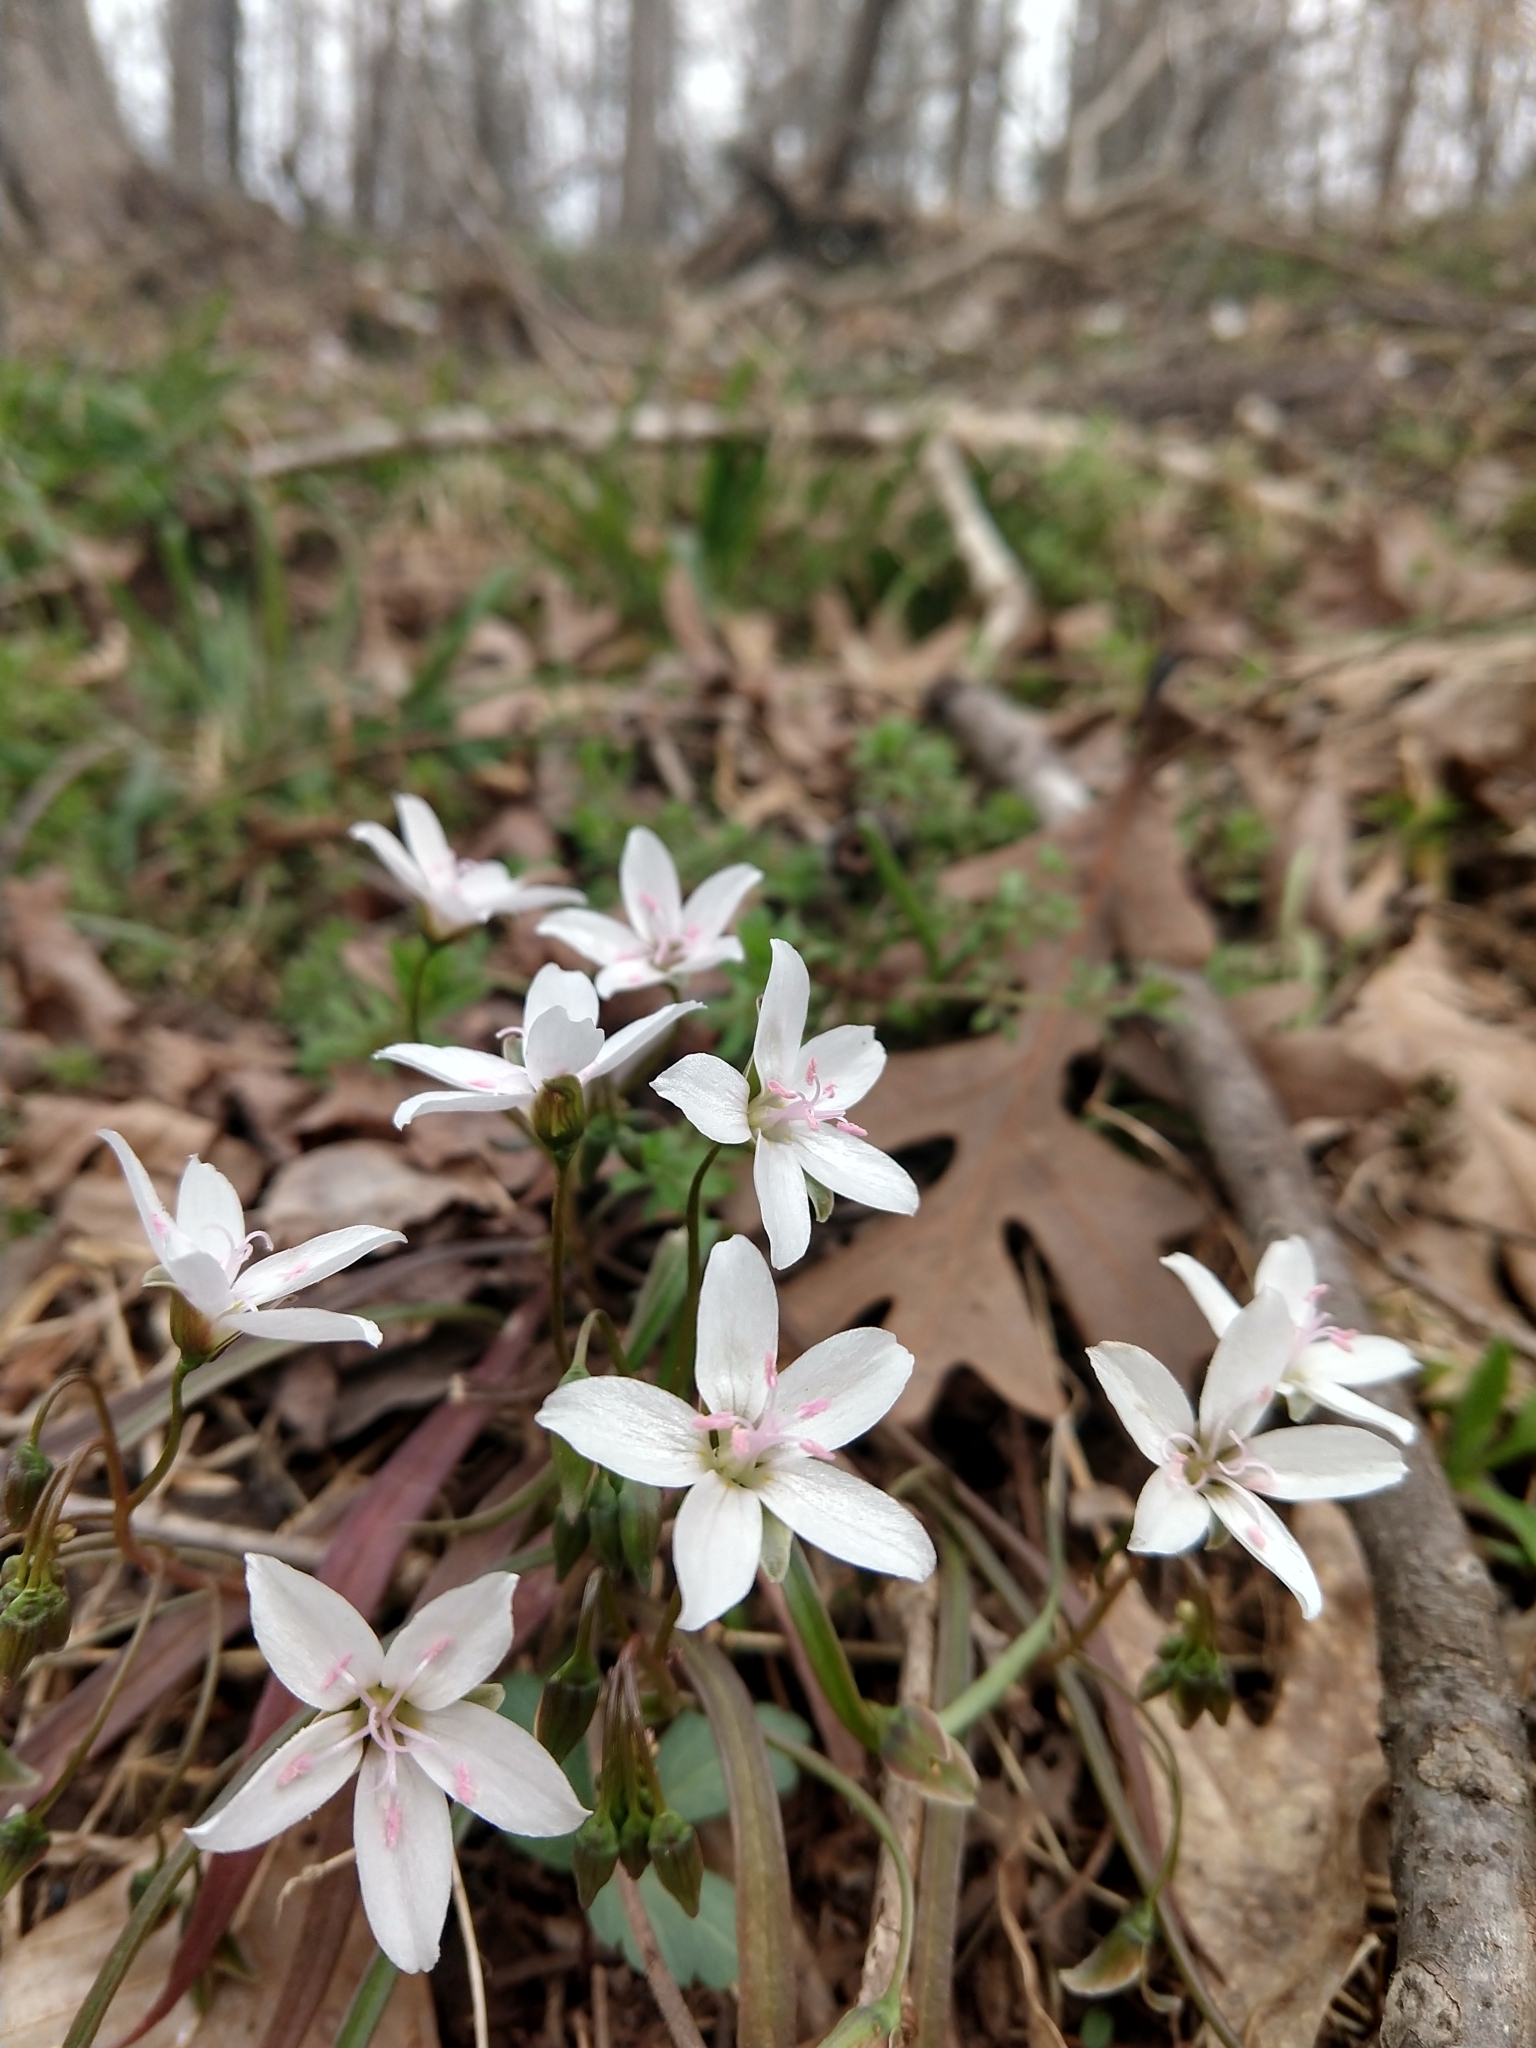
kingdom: Plantae
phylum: Tracheophyta
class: Magnoliopsida
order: Caryophyllales
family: Montiaceae
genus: Claytonia
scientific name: Claytonia virginica
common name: Virginia springbeauty
